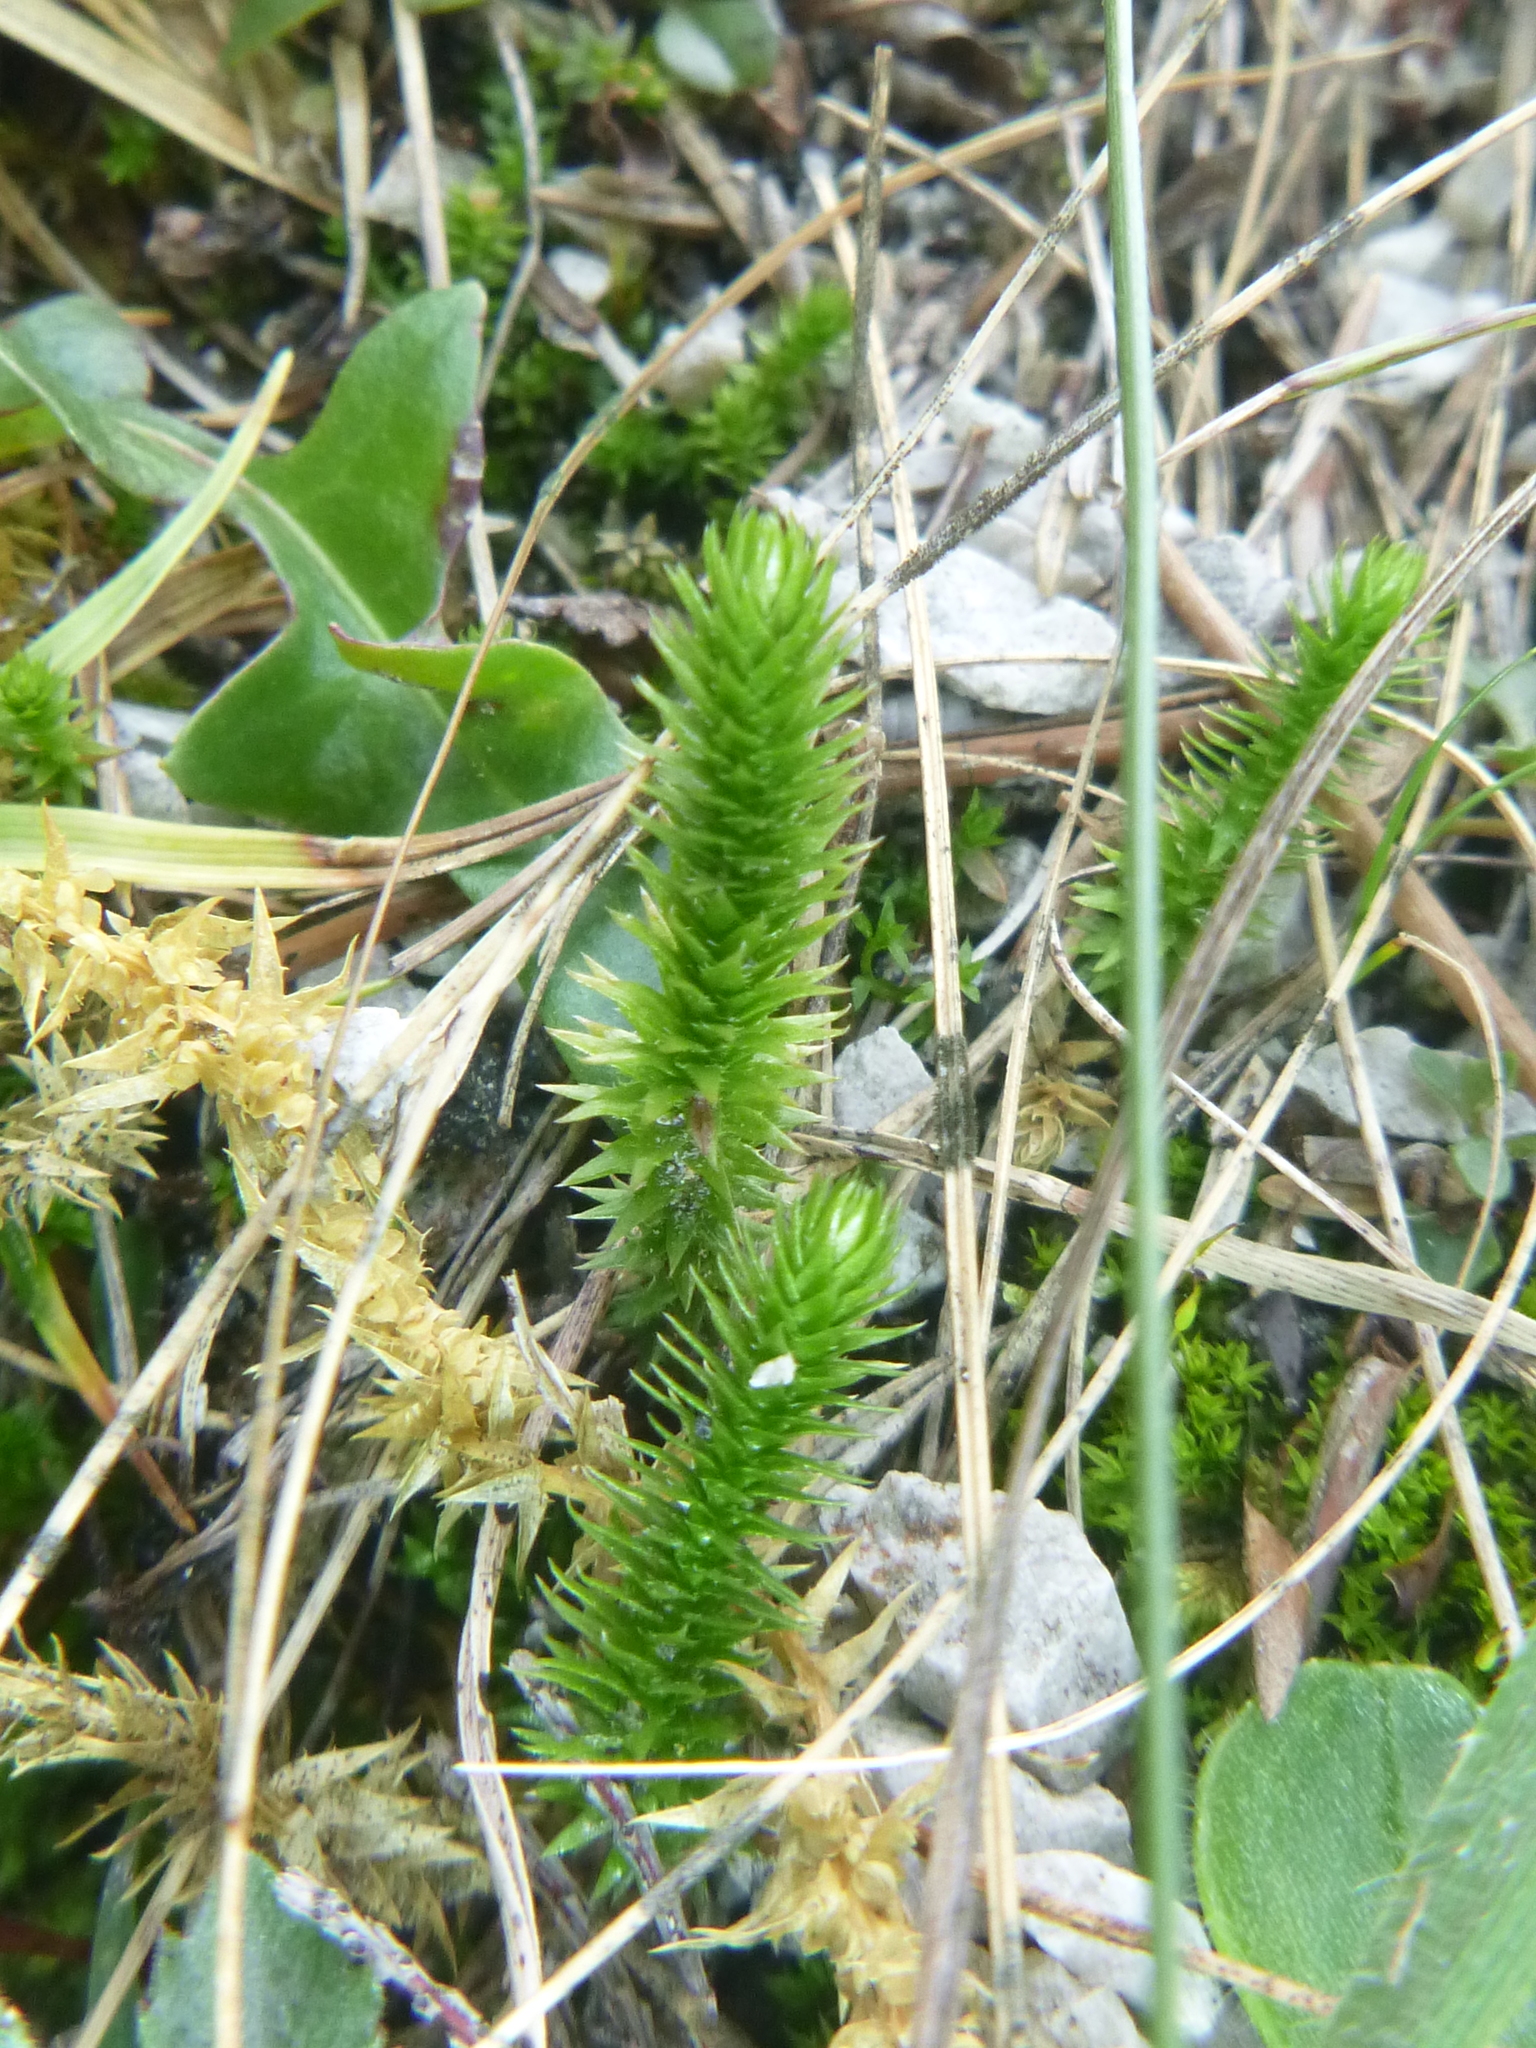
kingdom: Plantae
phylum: Tracheophyta
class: Lycopodiopsida
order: Selaginellales
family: Selaginellaceae
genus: Selaginella
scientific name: Selaginella selaginoides
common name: Prickly mountain-moss
